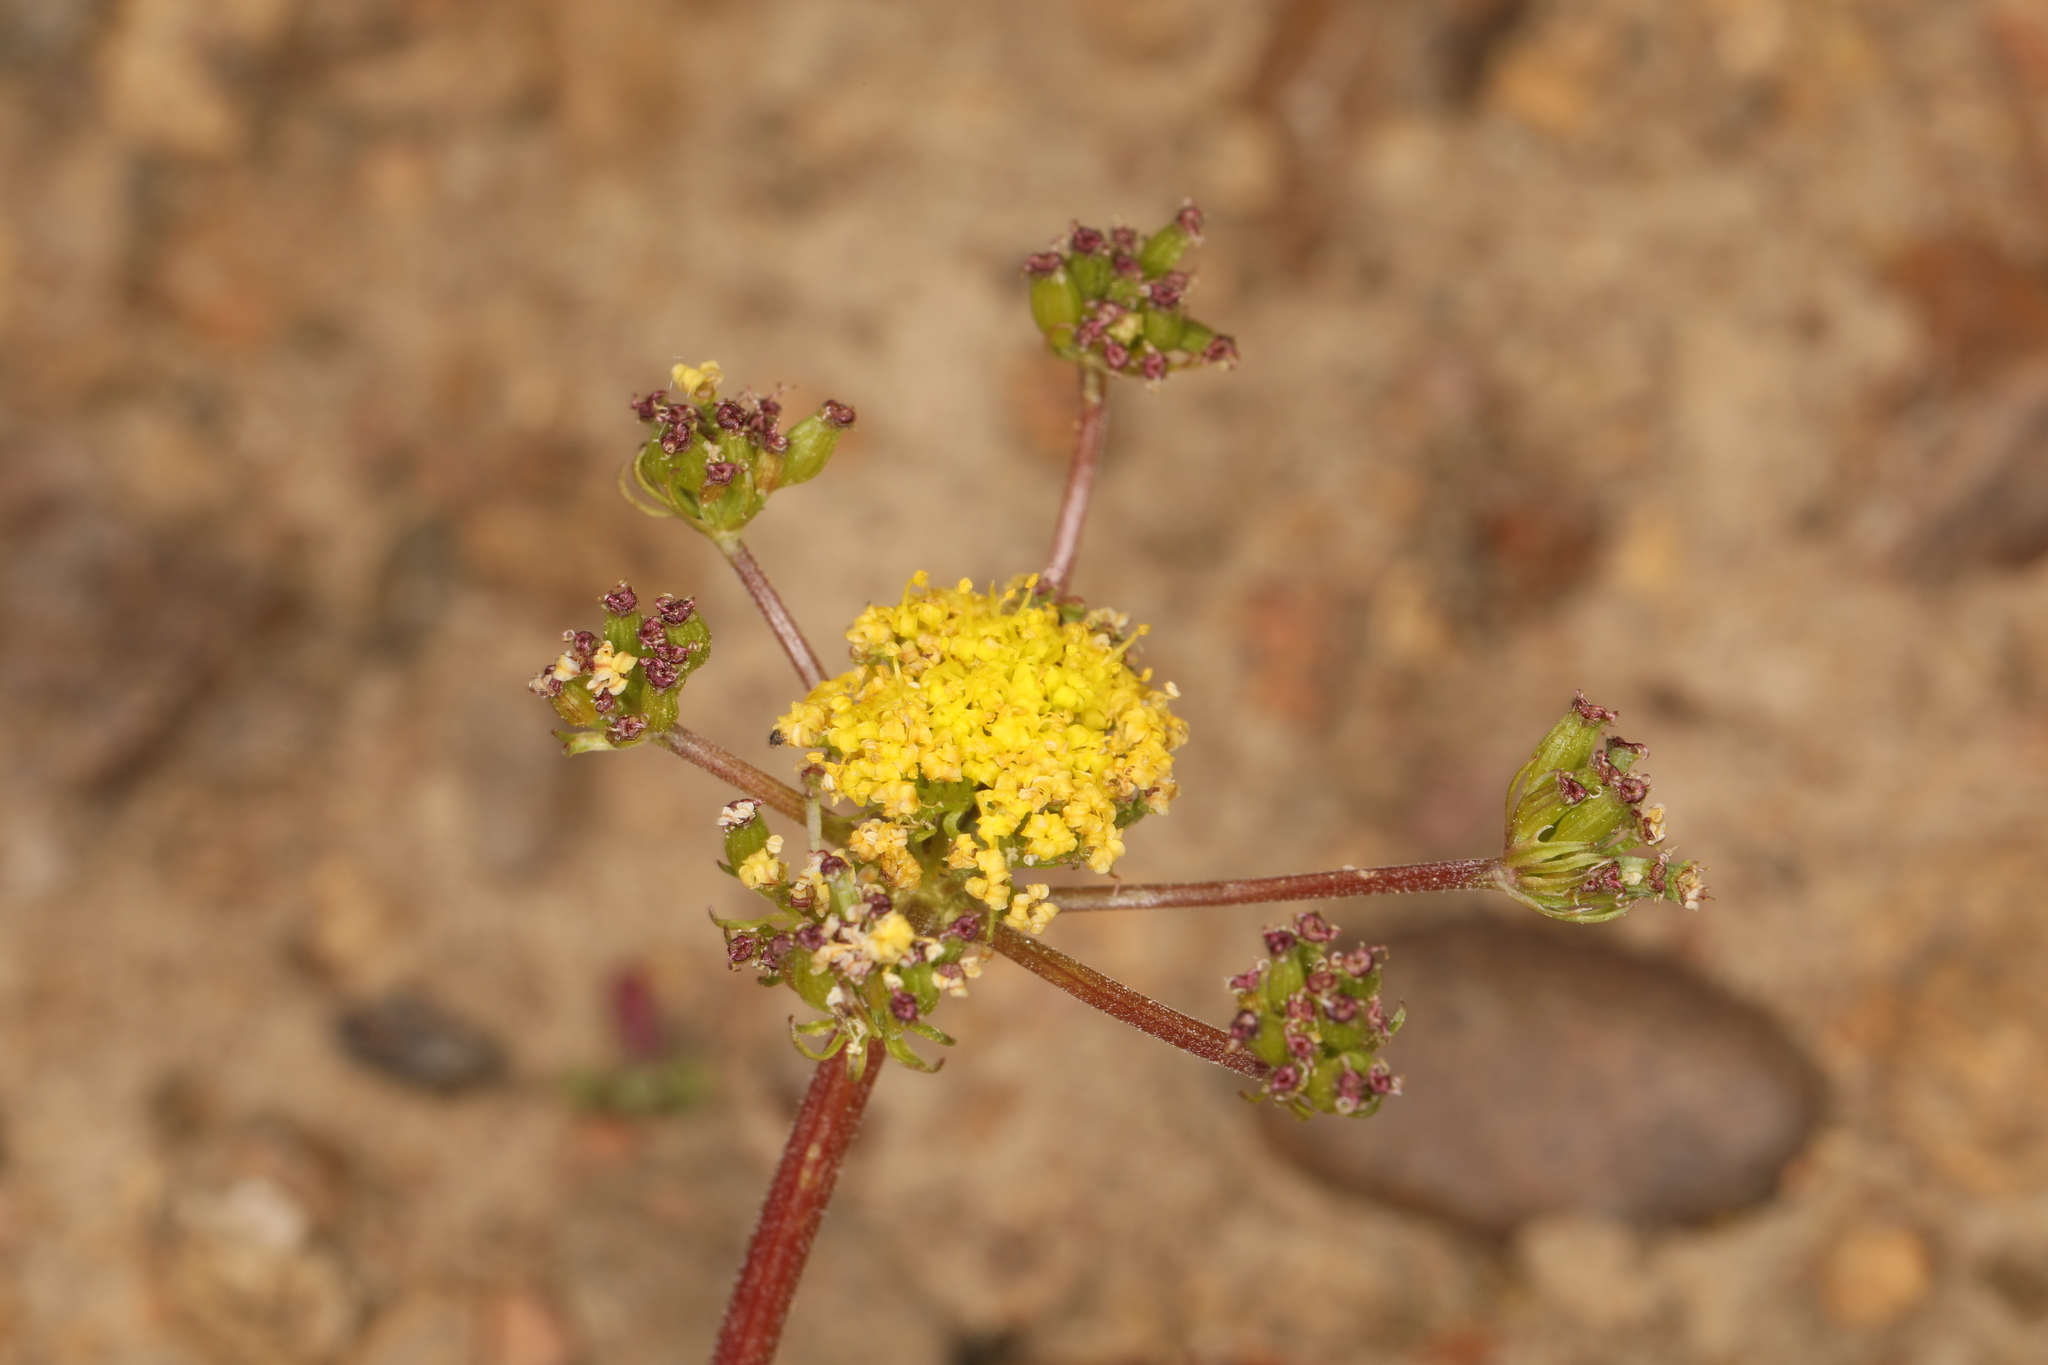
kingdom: Plantae
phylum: Tracheophyta
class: Magnoliopsida
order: Apiales
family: Apiaceae
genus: Lomatium
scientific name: Lomatium austiniae
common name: Plumas lomatium
